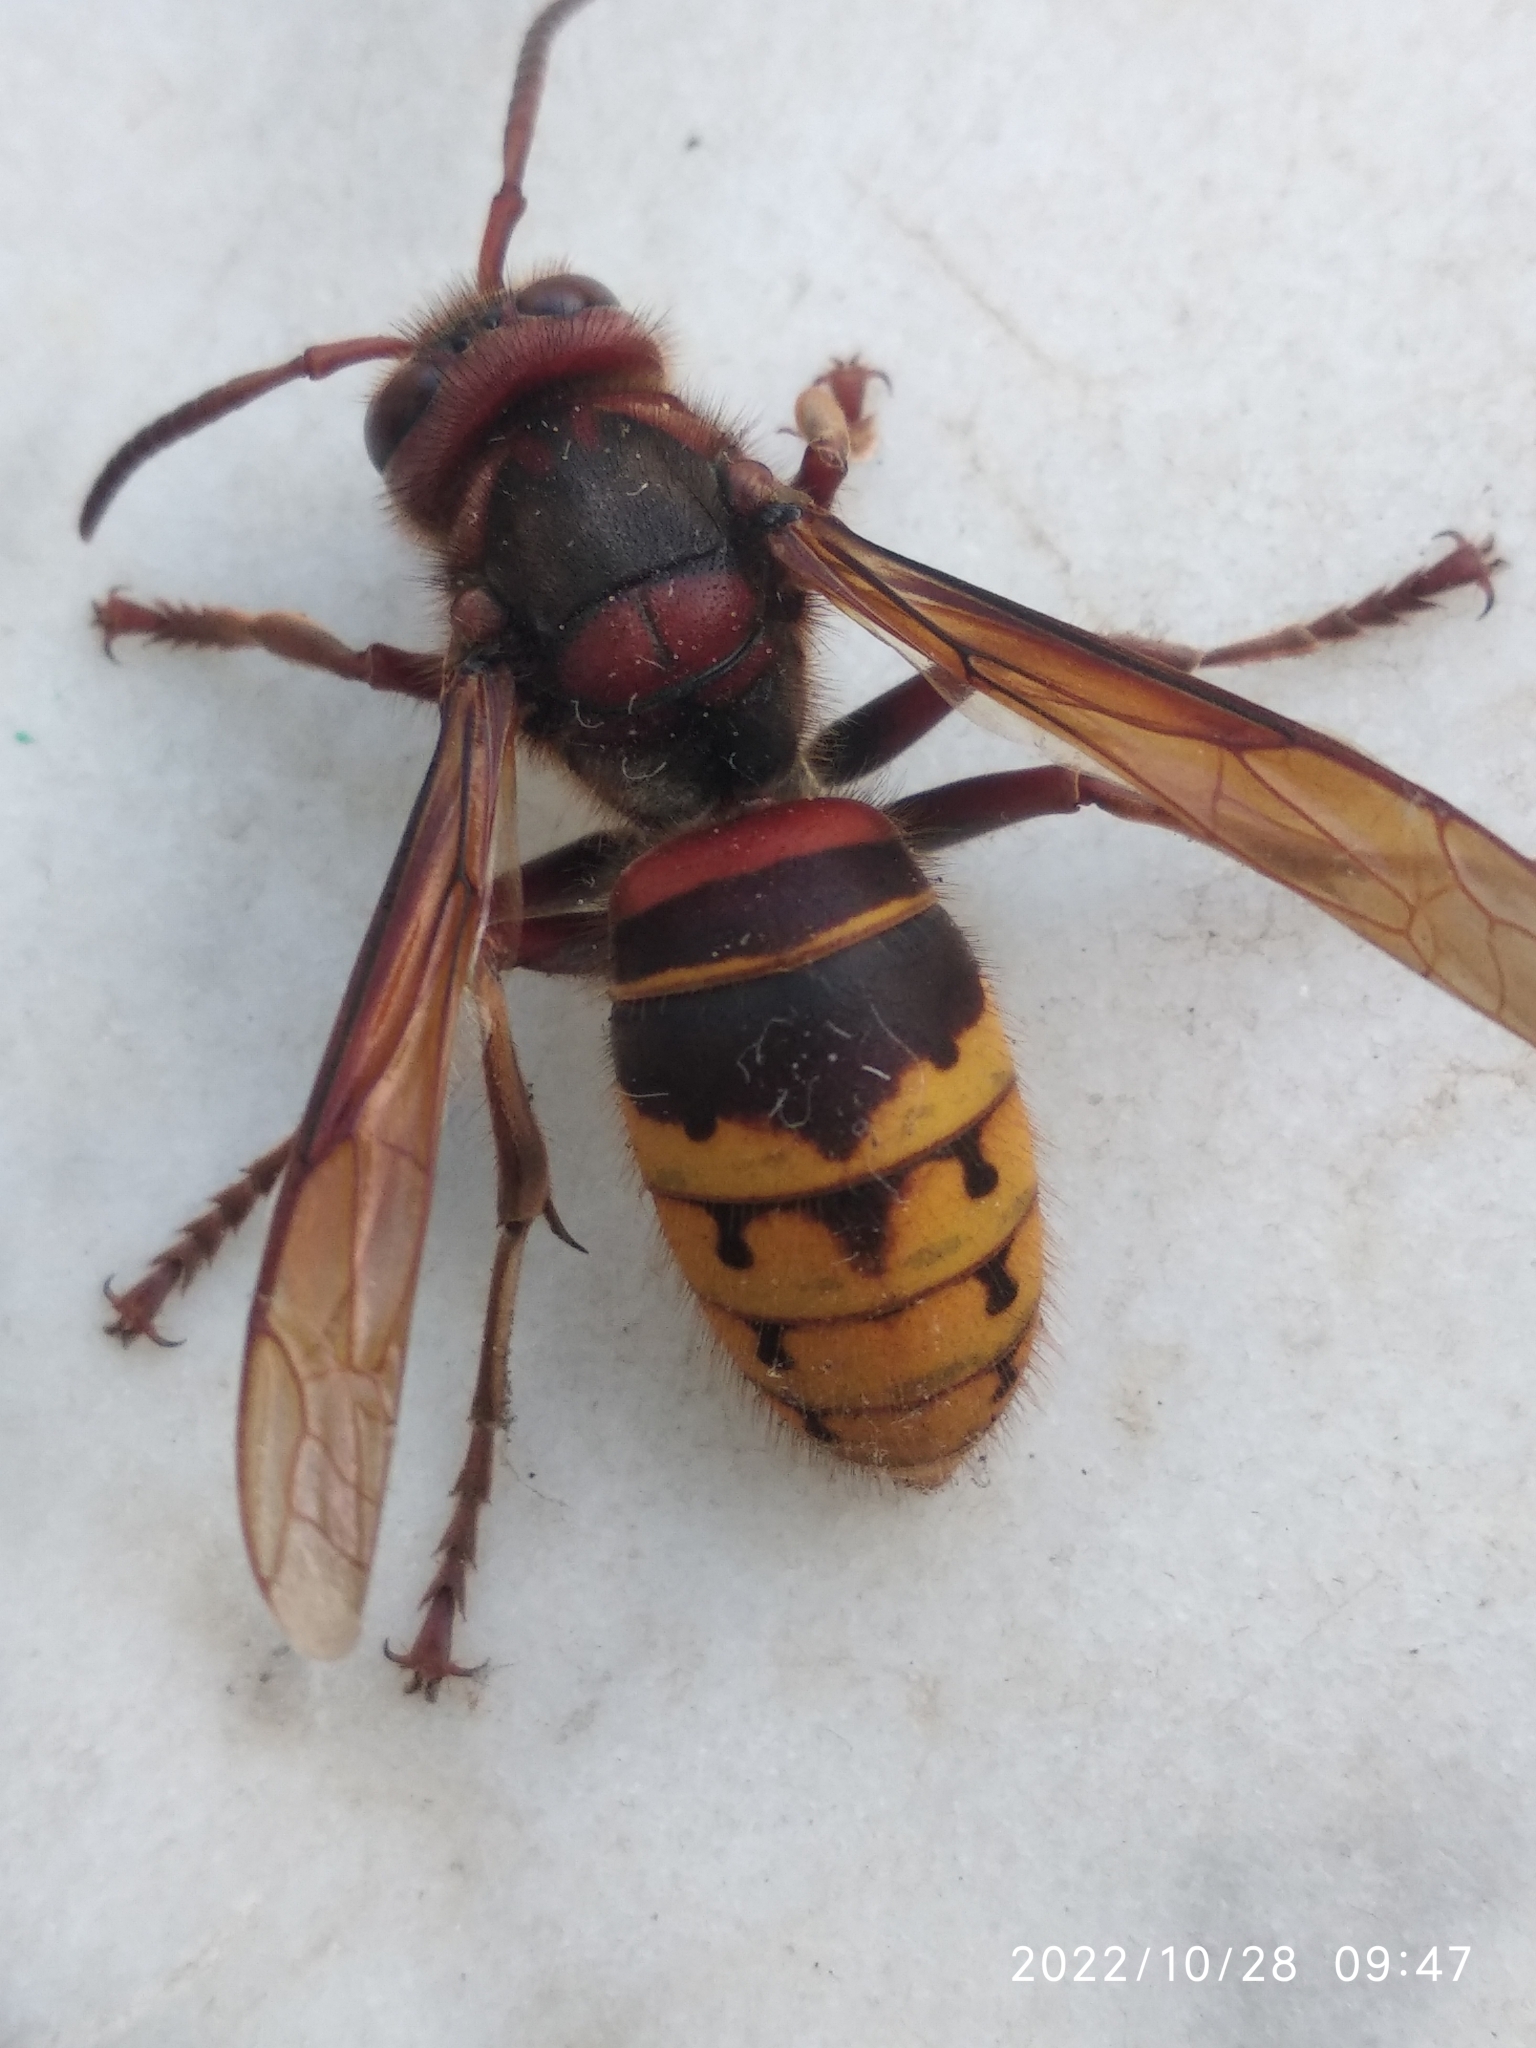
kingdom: Animalia
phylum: Arthropoda
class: Insecta
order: Hymenoptera
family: Vespidae
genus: Vespa
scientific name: Vespa crabro
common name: Hornet
